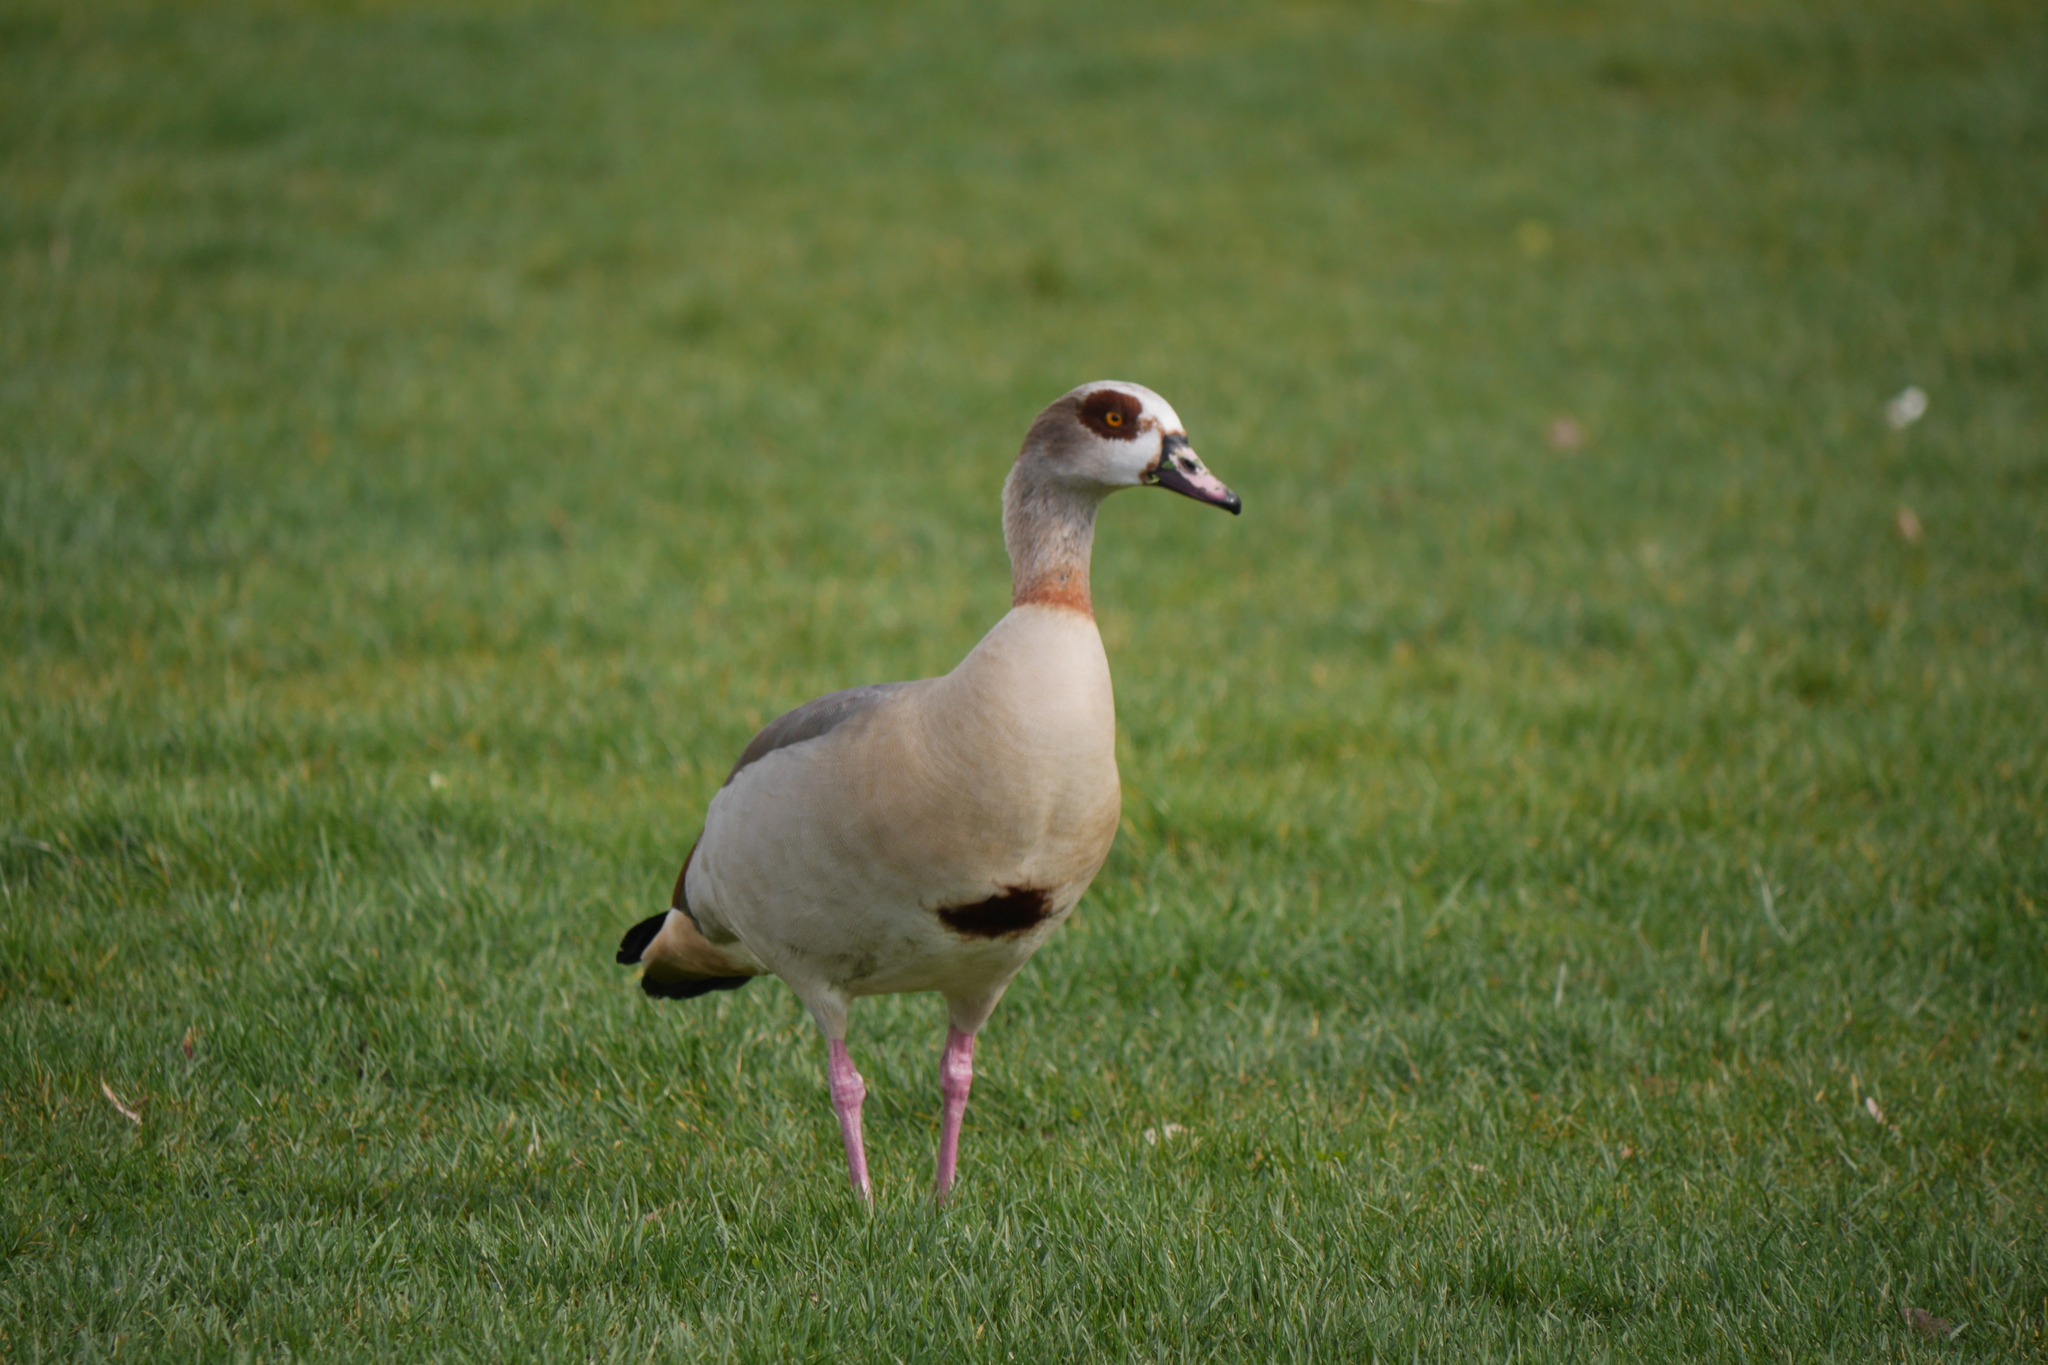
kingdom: Animalia
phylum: Chordata
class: Aves
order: Anseriformes
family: Anatidae
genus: Alopochen
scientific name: Alopochen aegyptiaca
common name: Egyptian goose
